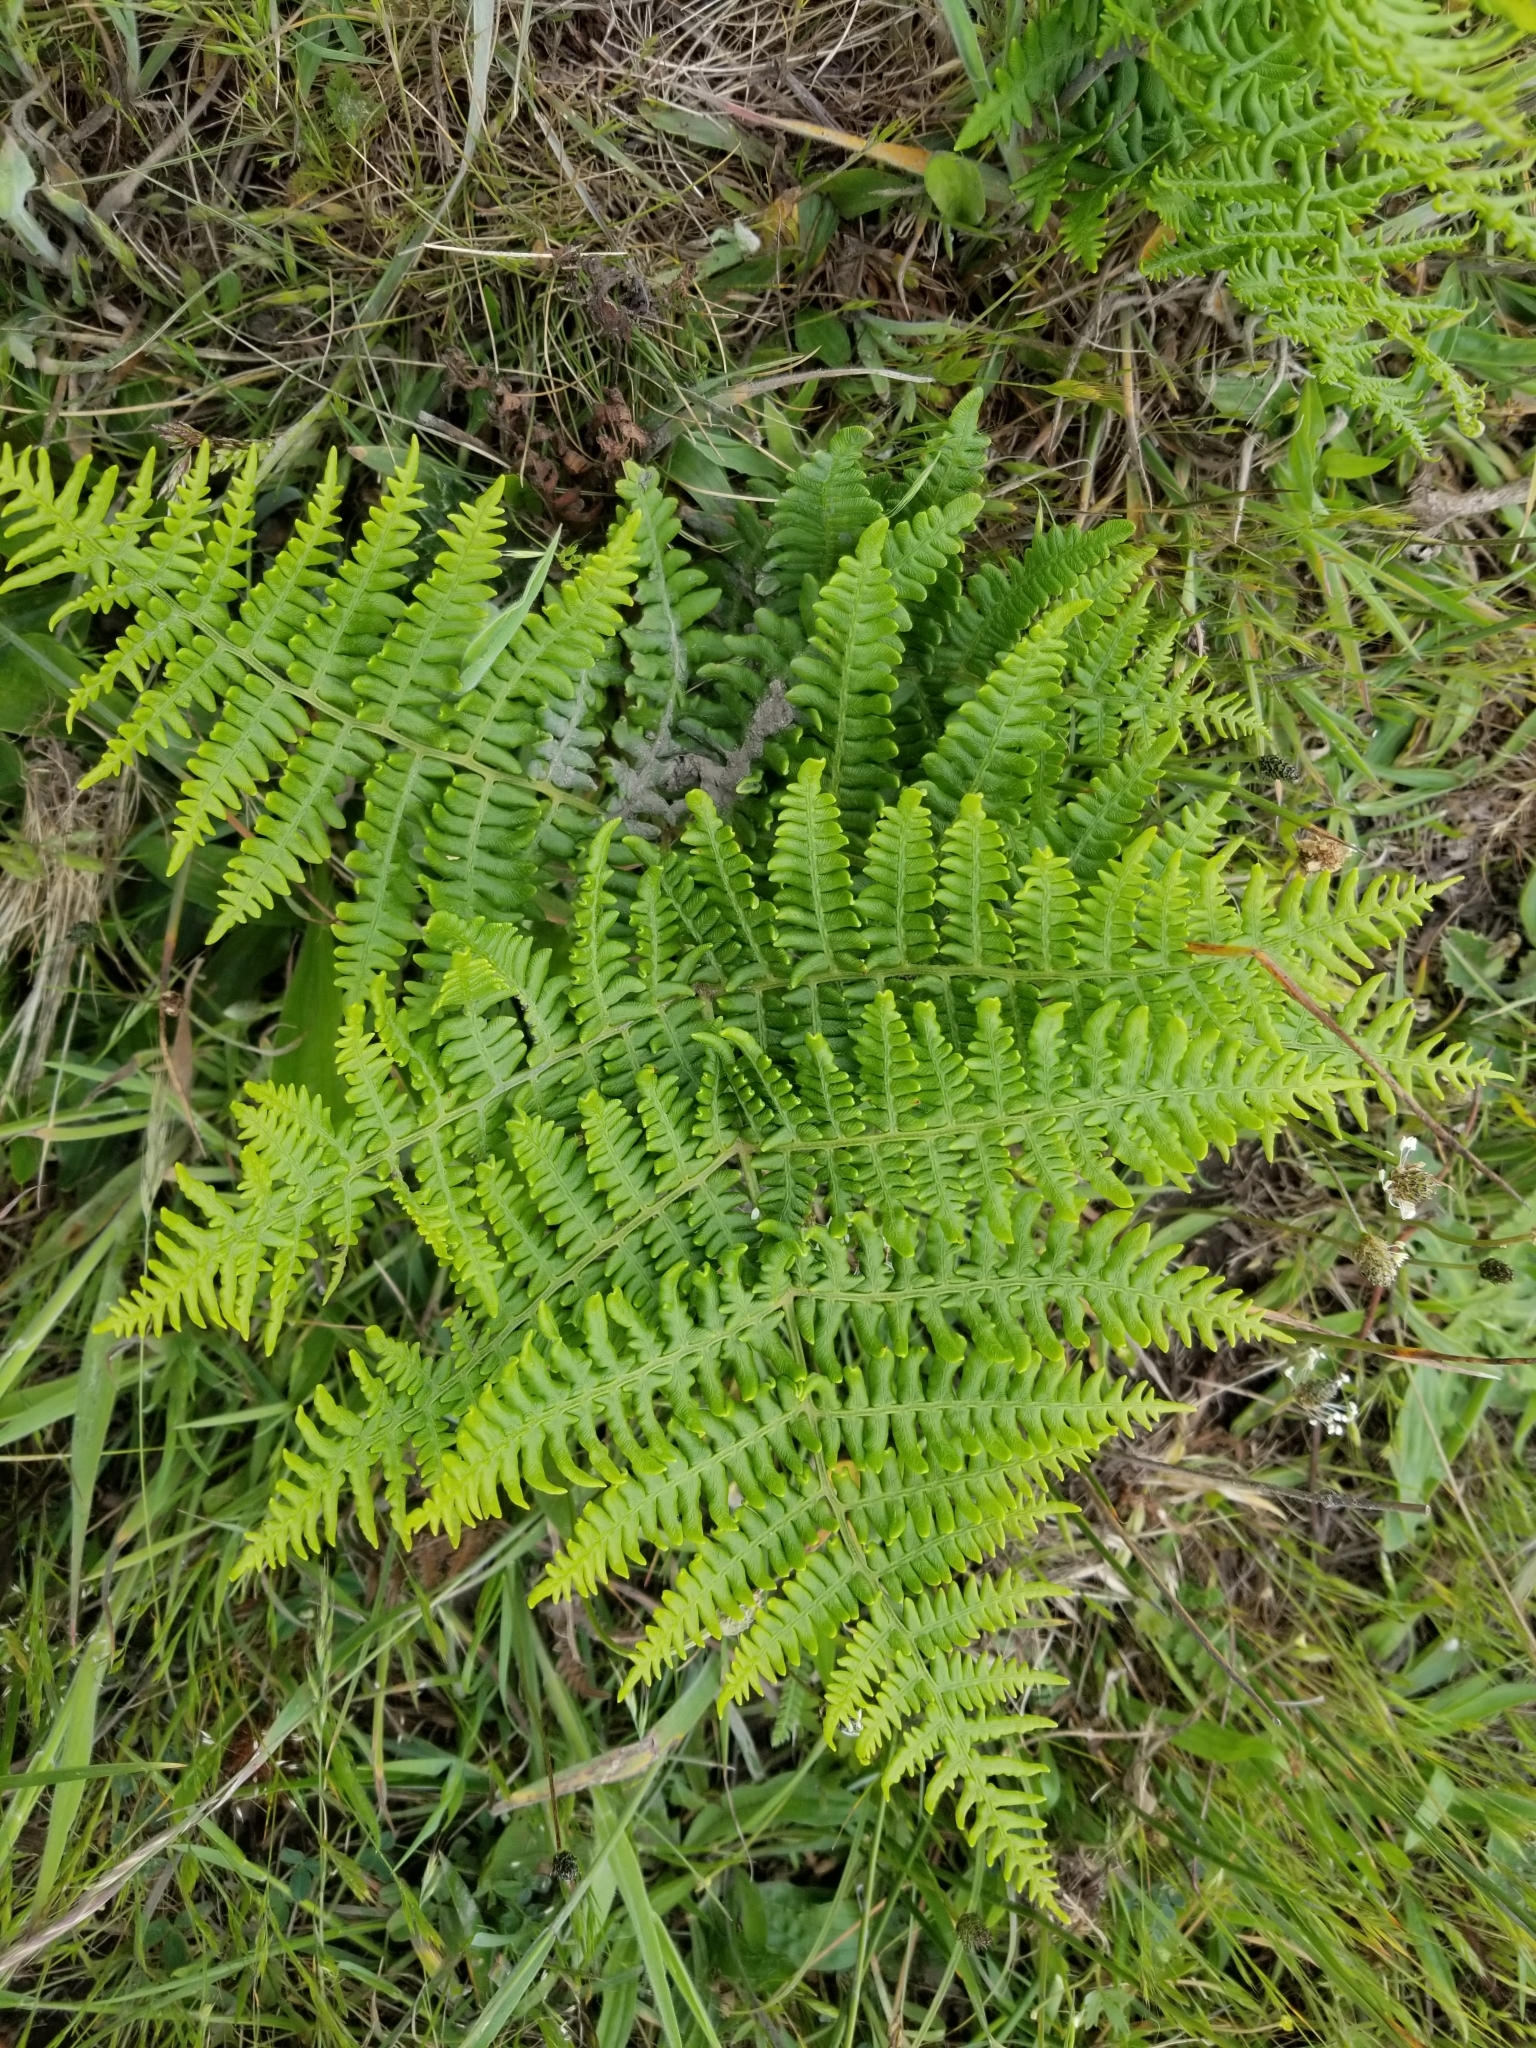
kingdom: Plantae
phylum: Tracheophyta
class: Polypodiopsida
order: Polypodiales
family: Dennstaedtiaceae
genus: Pteridium
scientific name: Pteridium aquilinum
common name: Bracken
